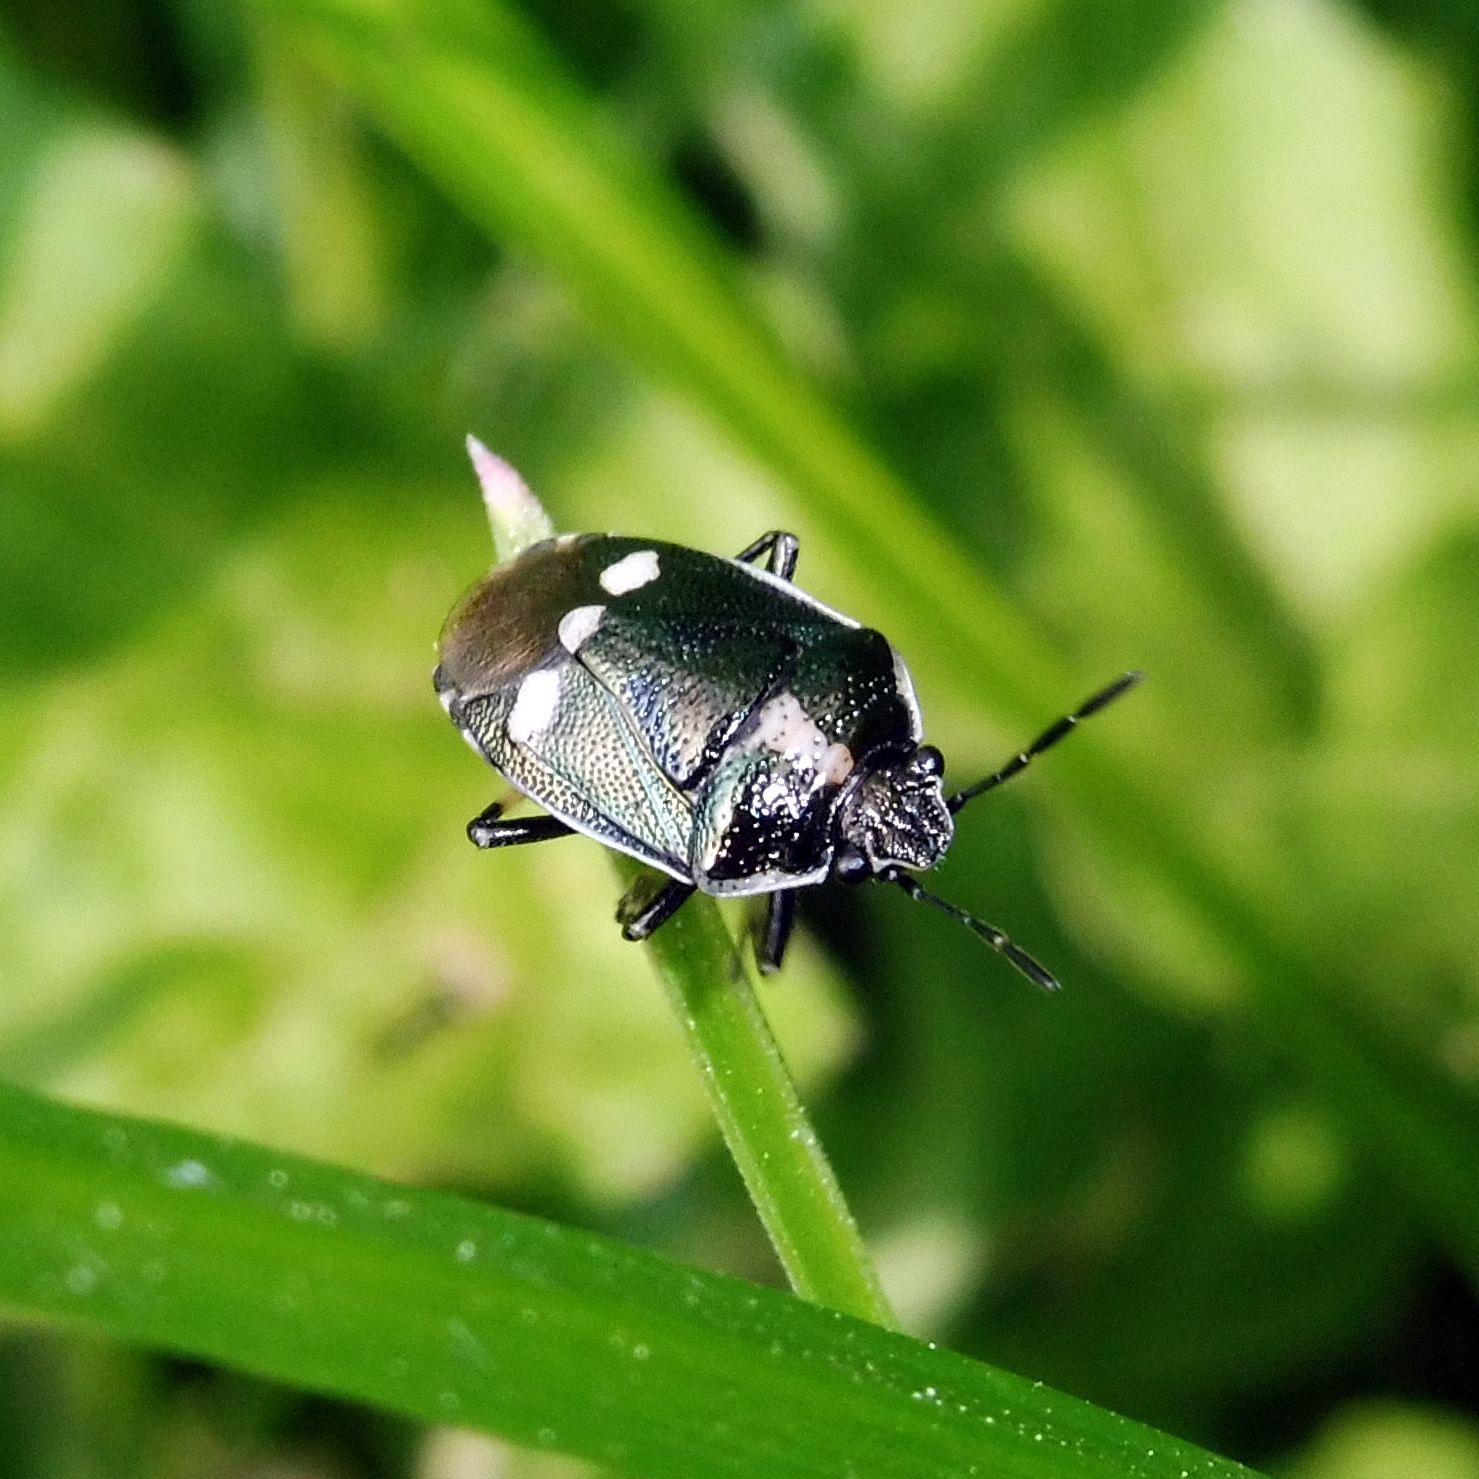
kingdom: Animalia
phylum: Arthropoda
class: Insecta
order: Hemiptera
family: Pentatomidae
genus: Eurydema
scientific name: Eurydema oleracea
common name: Cabbage bug
